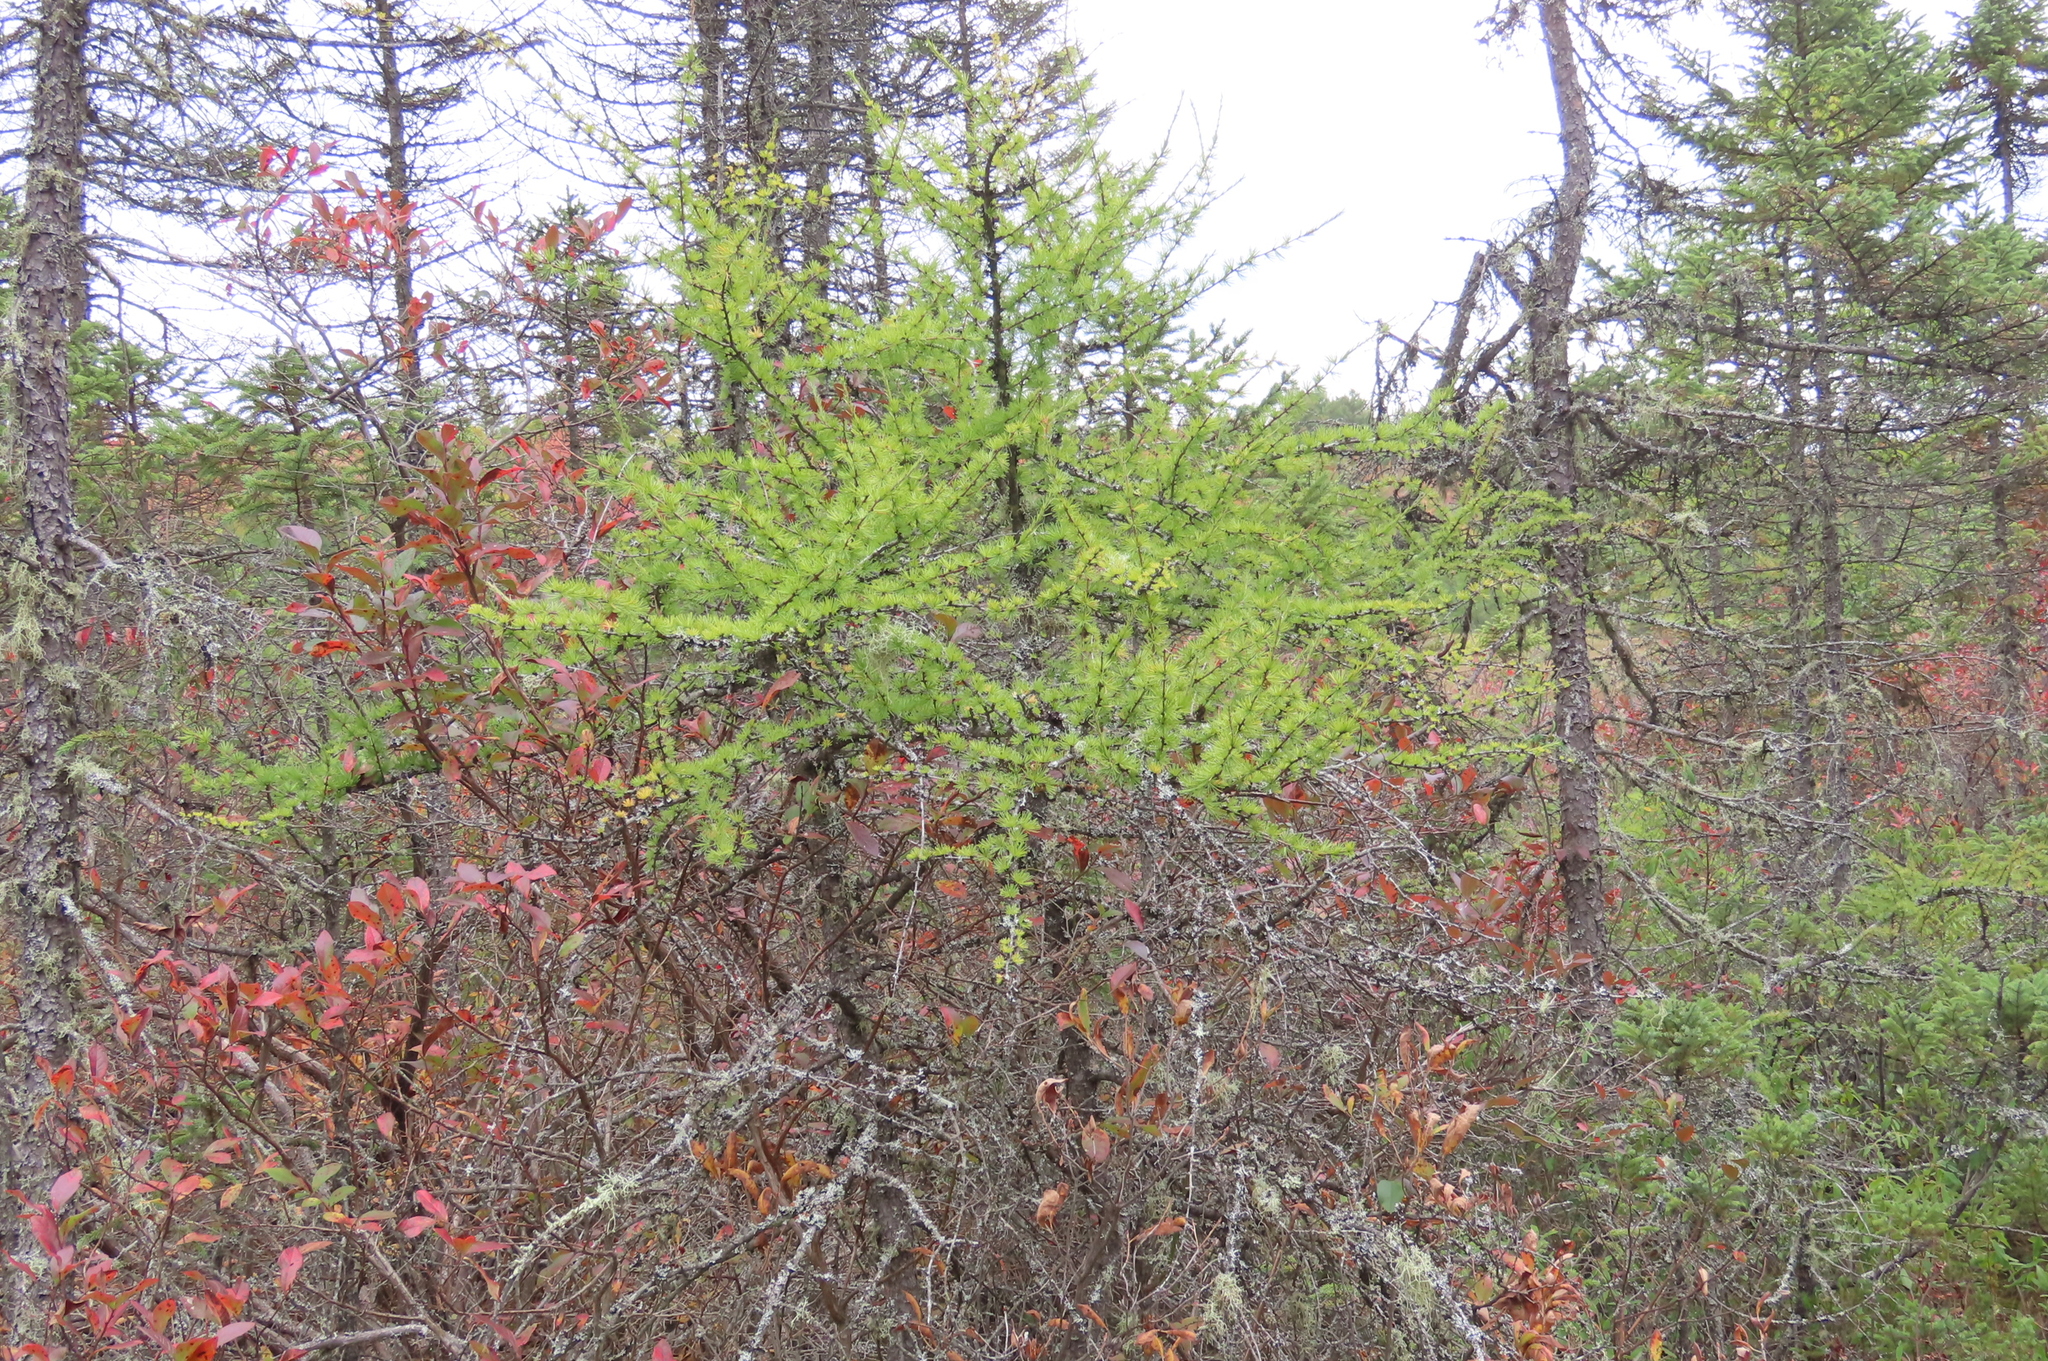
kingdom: Plantae
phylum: Tracheophyta
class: Pinopsida
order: Pinales
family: Pinaceae
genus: Larix
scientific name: Larix laricina
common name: American larch
